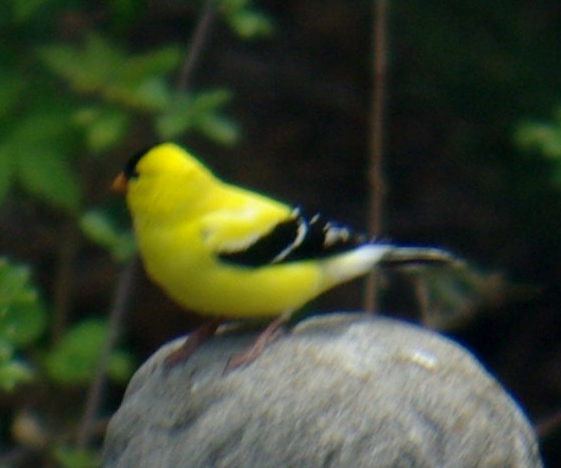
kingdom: Animalia
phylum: Chordata
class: Aves
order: Passeriformes
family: Fringillidae
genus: Spinus
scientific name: Spinus tristis
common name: American goldfinch
